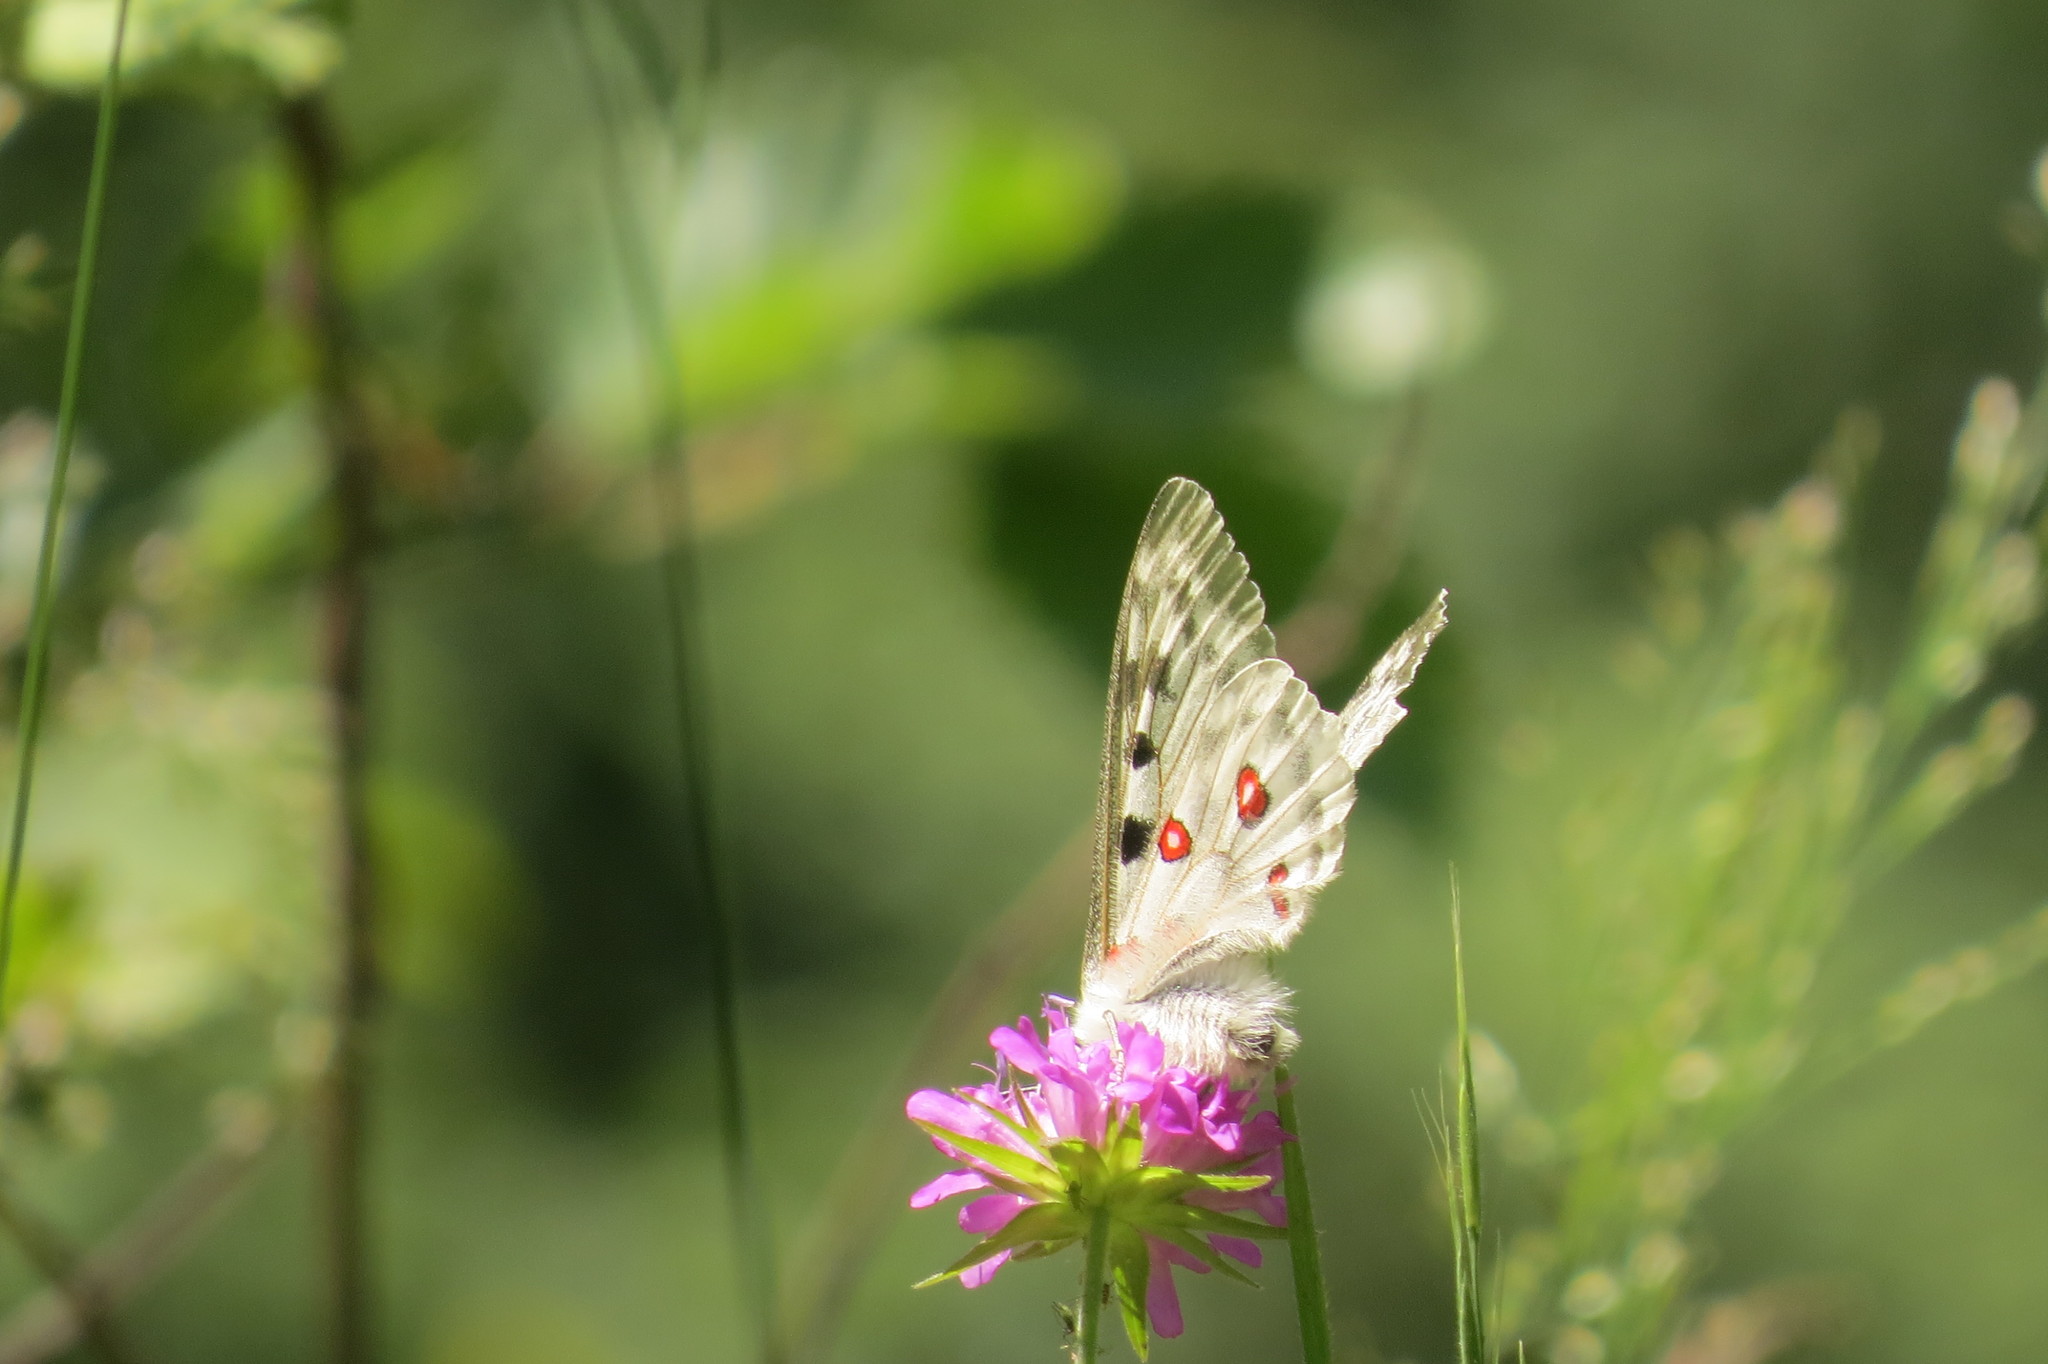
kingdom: Animalia
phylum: Arthropoda
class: Insecta
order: Lepidoptera
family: Papilionidae
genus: Parnassius
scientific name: Parnassius apollo
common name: Apollo
